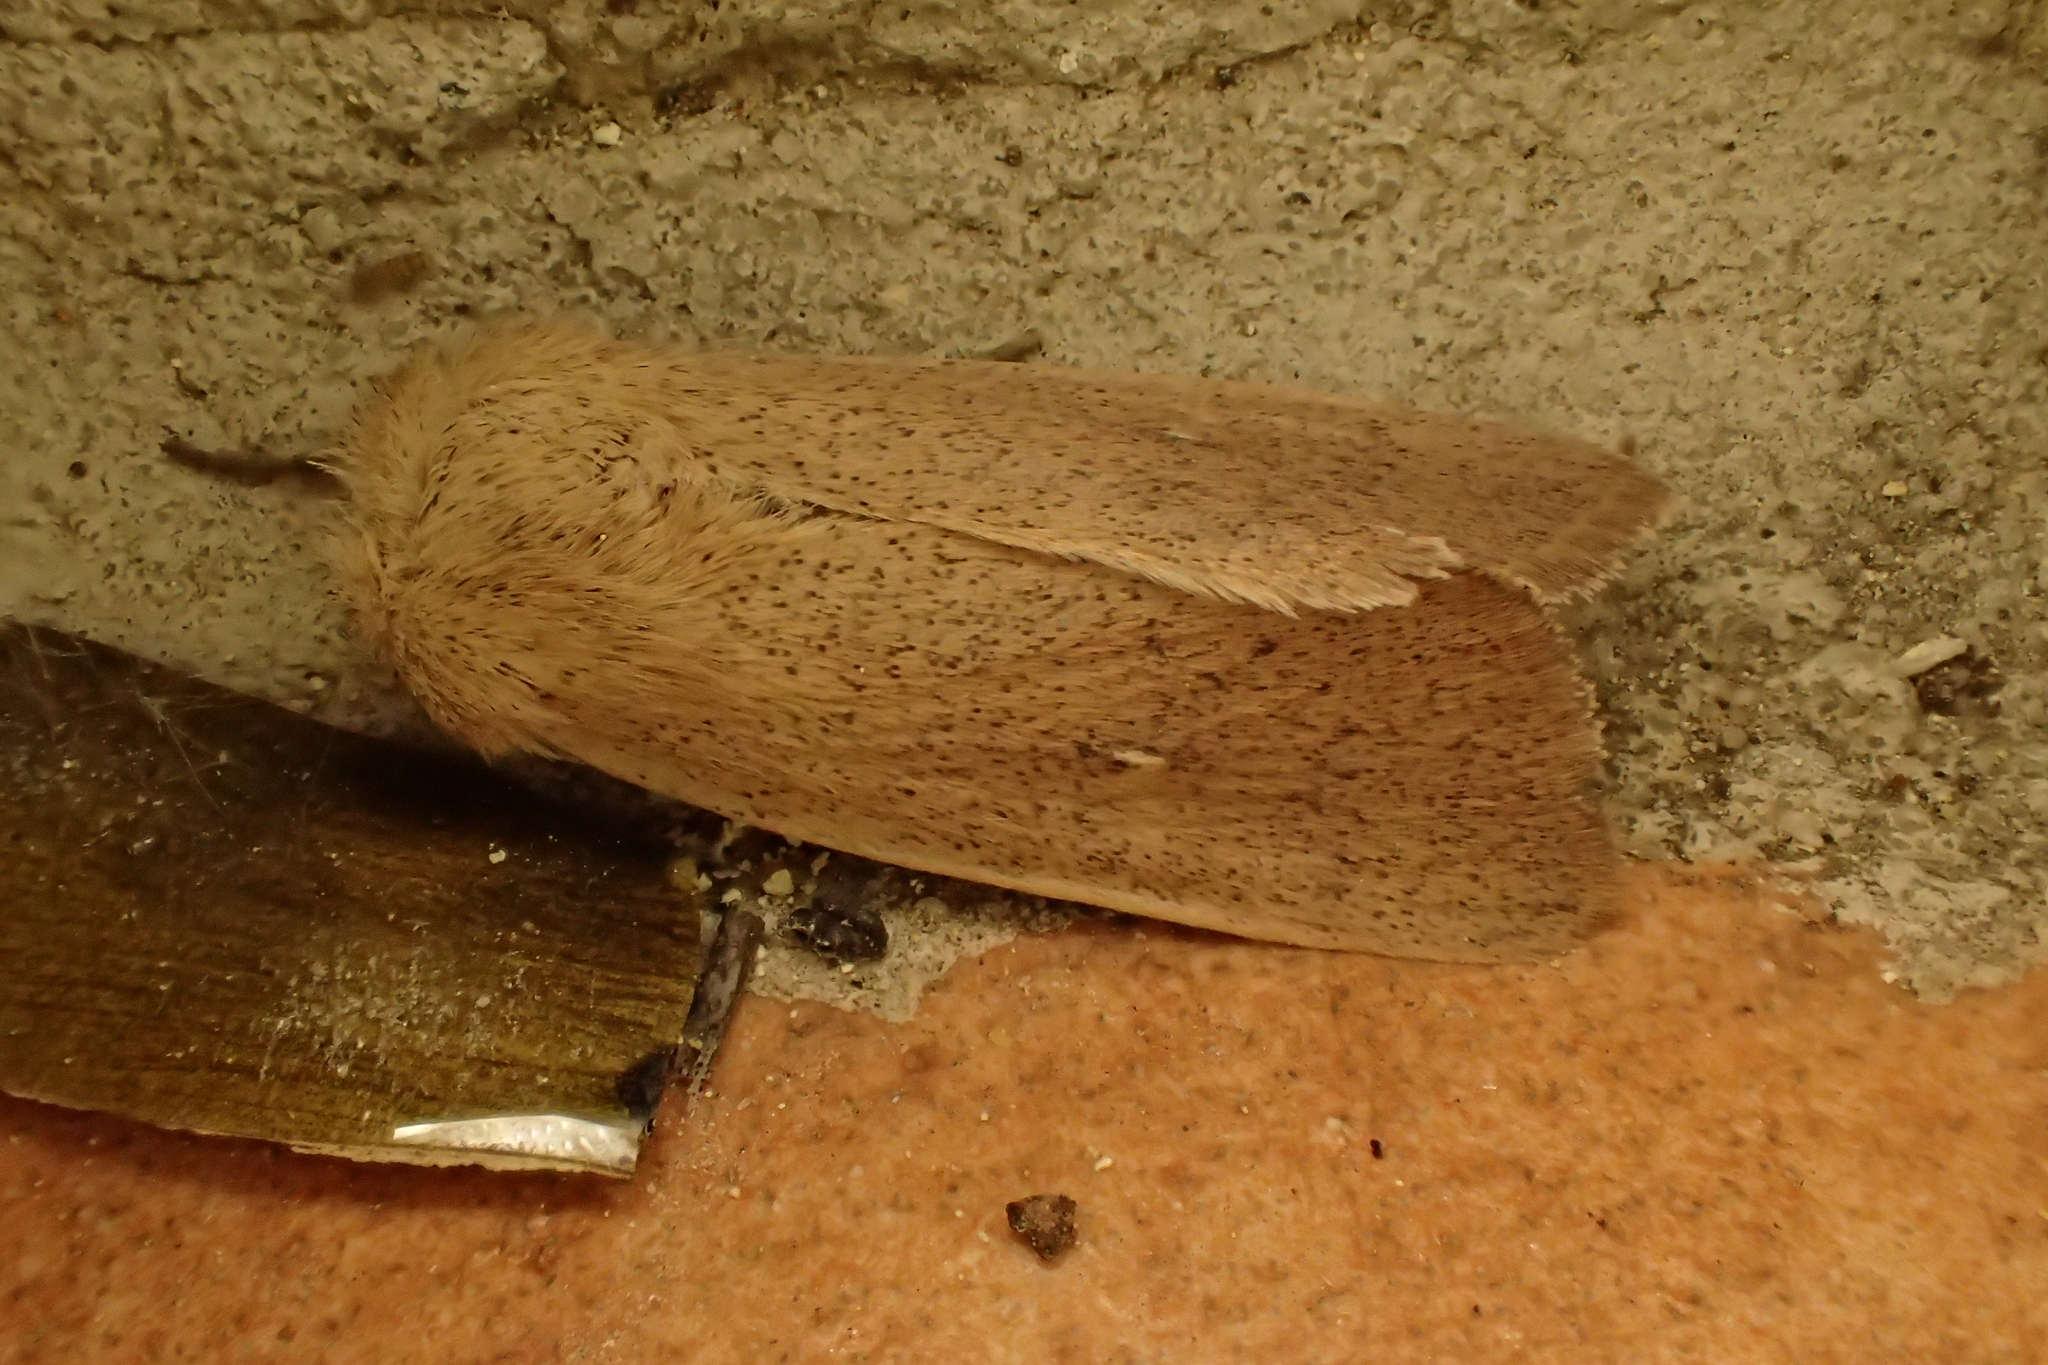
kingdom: Animalia
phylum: Arthropoda
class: Insecta
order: Lepidoptera
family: Noctuidae
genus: Mythimna
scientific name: Mythimna sicula
